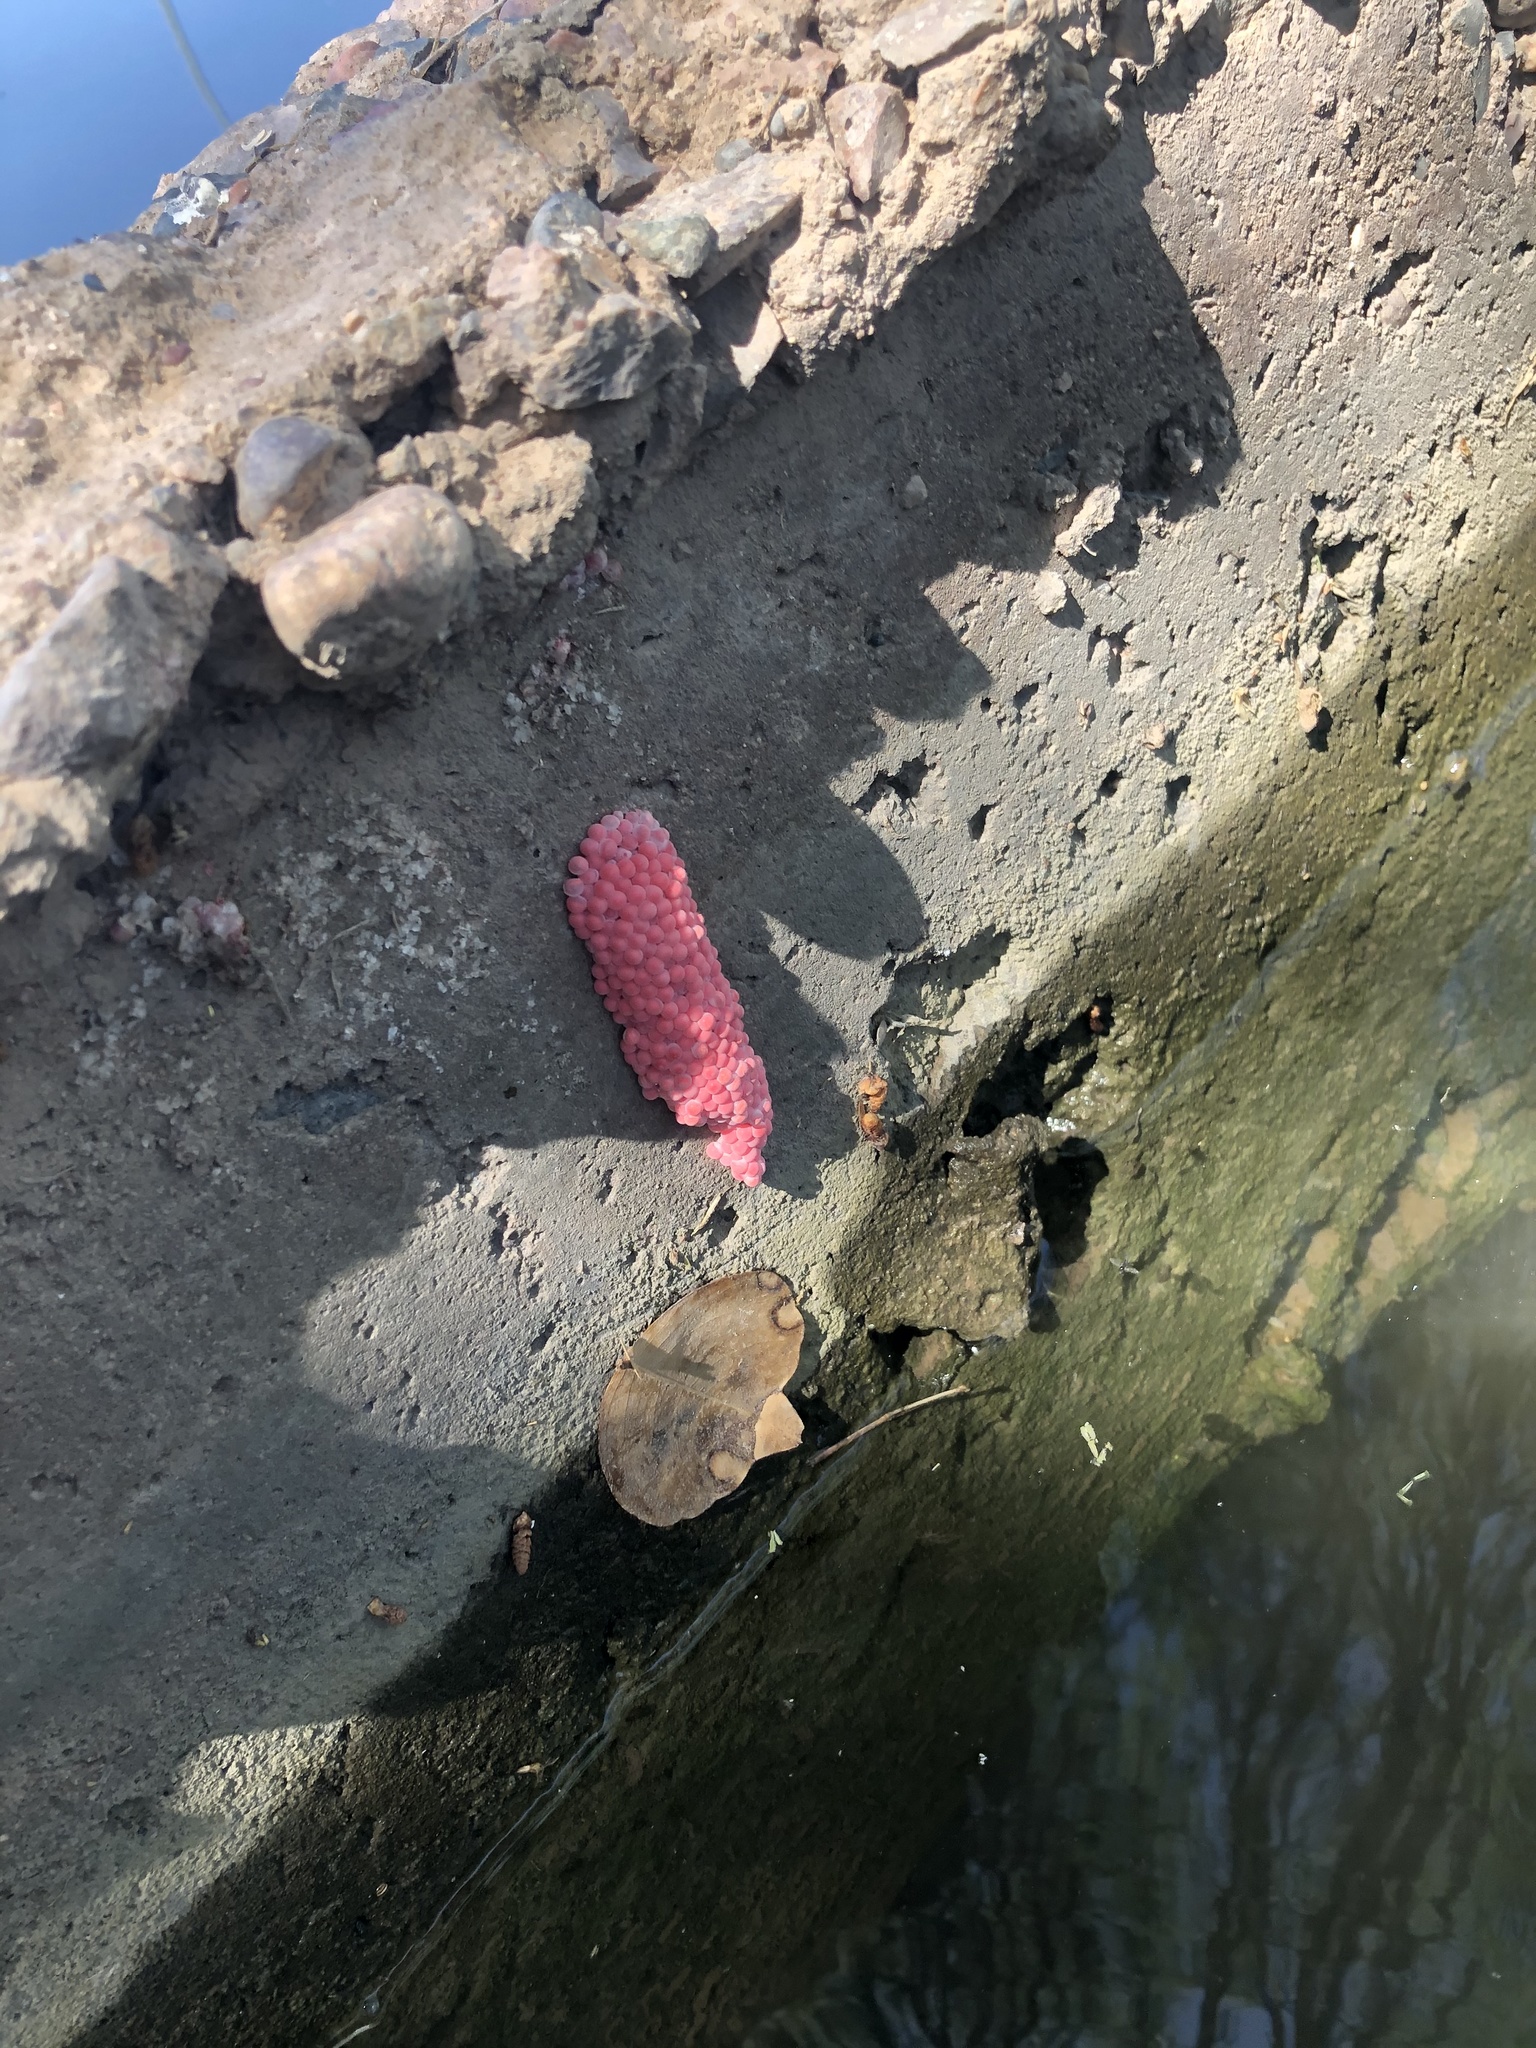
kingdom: Animalia
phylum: Mollusca
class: Gastropoda
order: Architaenioglossa
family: Ampullariidae
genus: Pomacea
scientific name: Pomacea canaliculata
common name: Channeled applesnail
